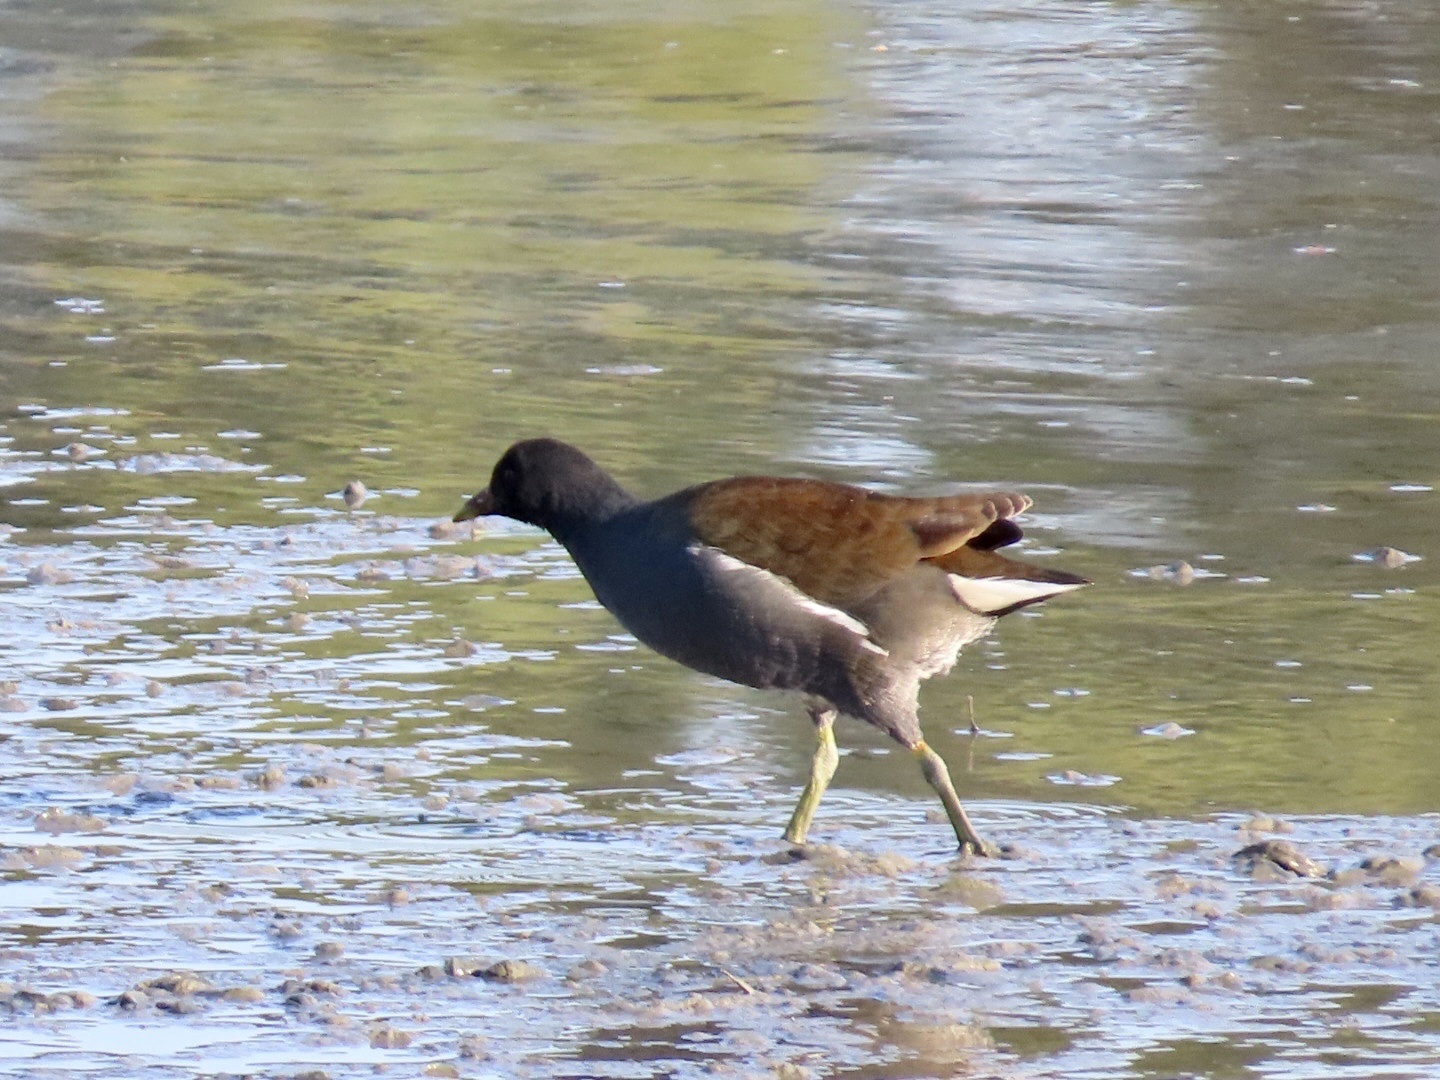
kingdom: Animalia
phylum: Chordata
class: Aves
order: Gruiformes
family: Rallidae
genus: Gallinula
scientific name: Gallinula chloropus
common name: Common moorhen
